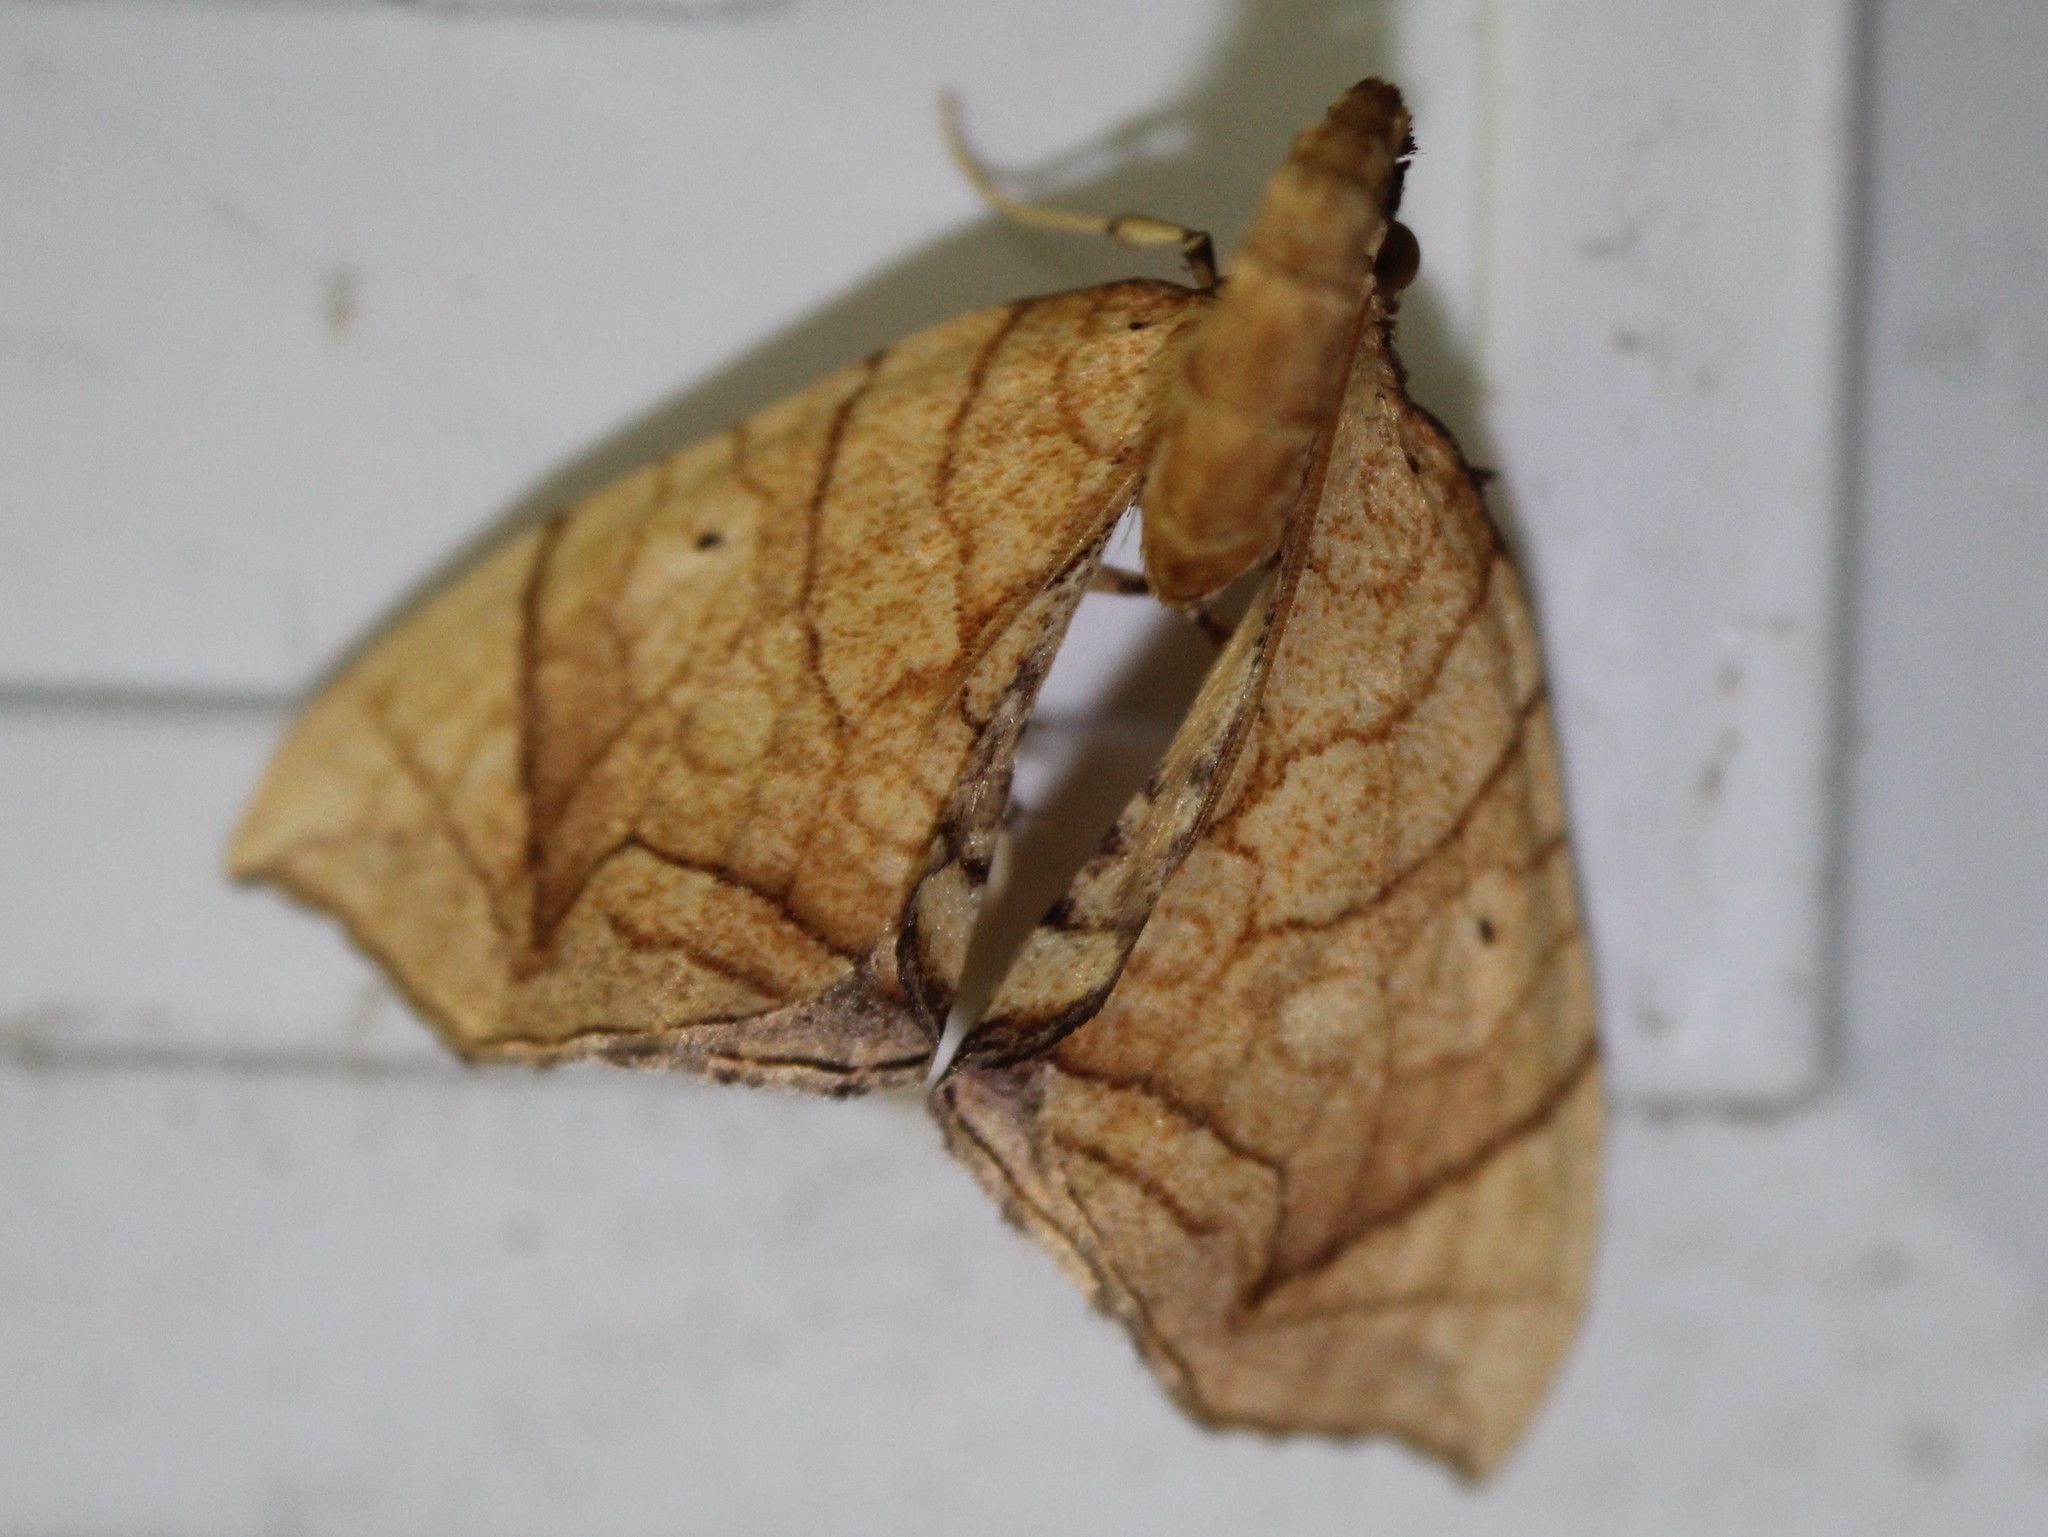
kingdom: Animalia
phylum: Arthropoda
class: Insecta
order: Lepidoptera
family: Geometridae
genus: Eulithis
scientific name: Eulithis
